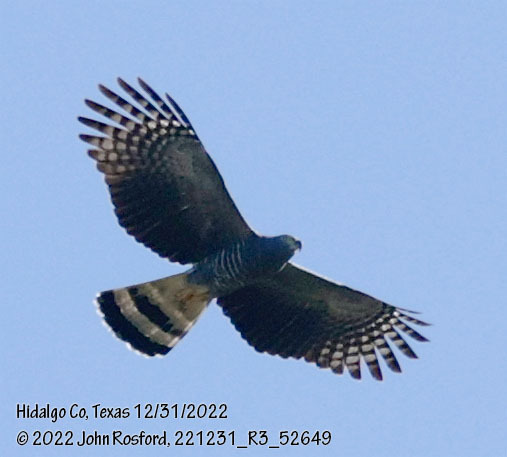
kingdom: Animalia
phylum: Chordata
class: Aves
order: Accipitriformes
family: Accipitridae
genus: Chondrohierax
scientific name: Chondrohierax uncinatus
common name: Hook-billed kite
